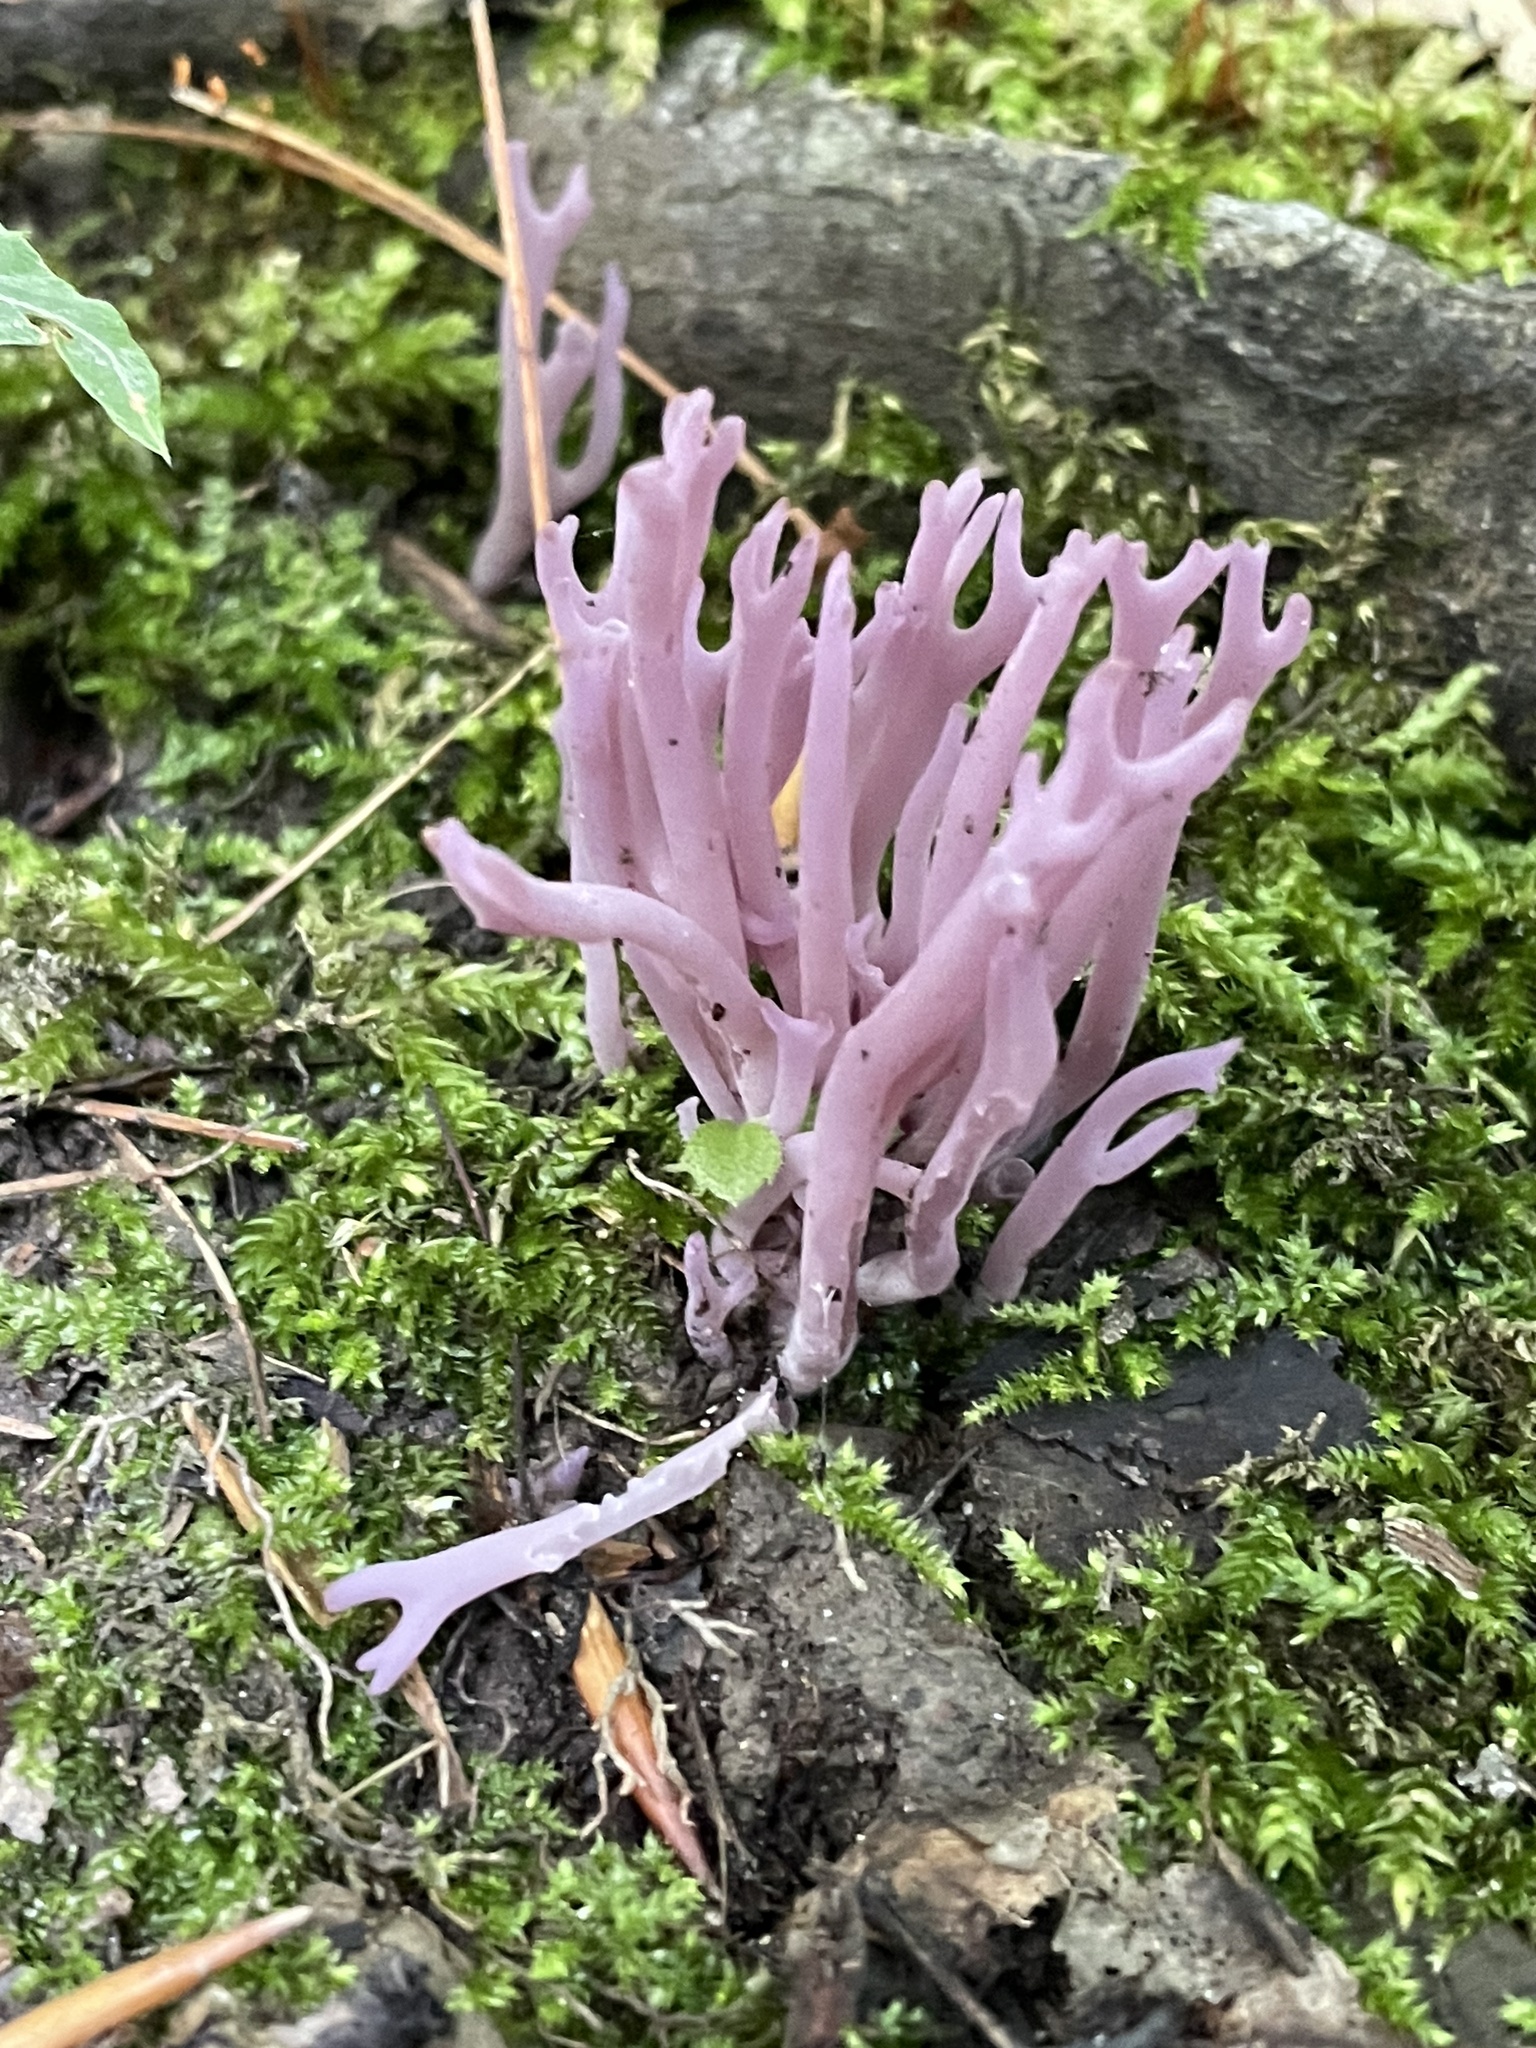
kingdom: Fungi
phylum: Basidiomycota
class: Agaricomycetes
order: Agaricales
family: Clavariaceae
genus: Clavaria
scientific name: Clavaria zollingeri
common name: Violet coral
